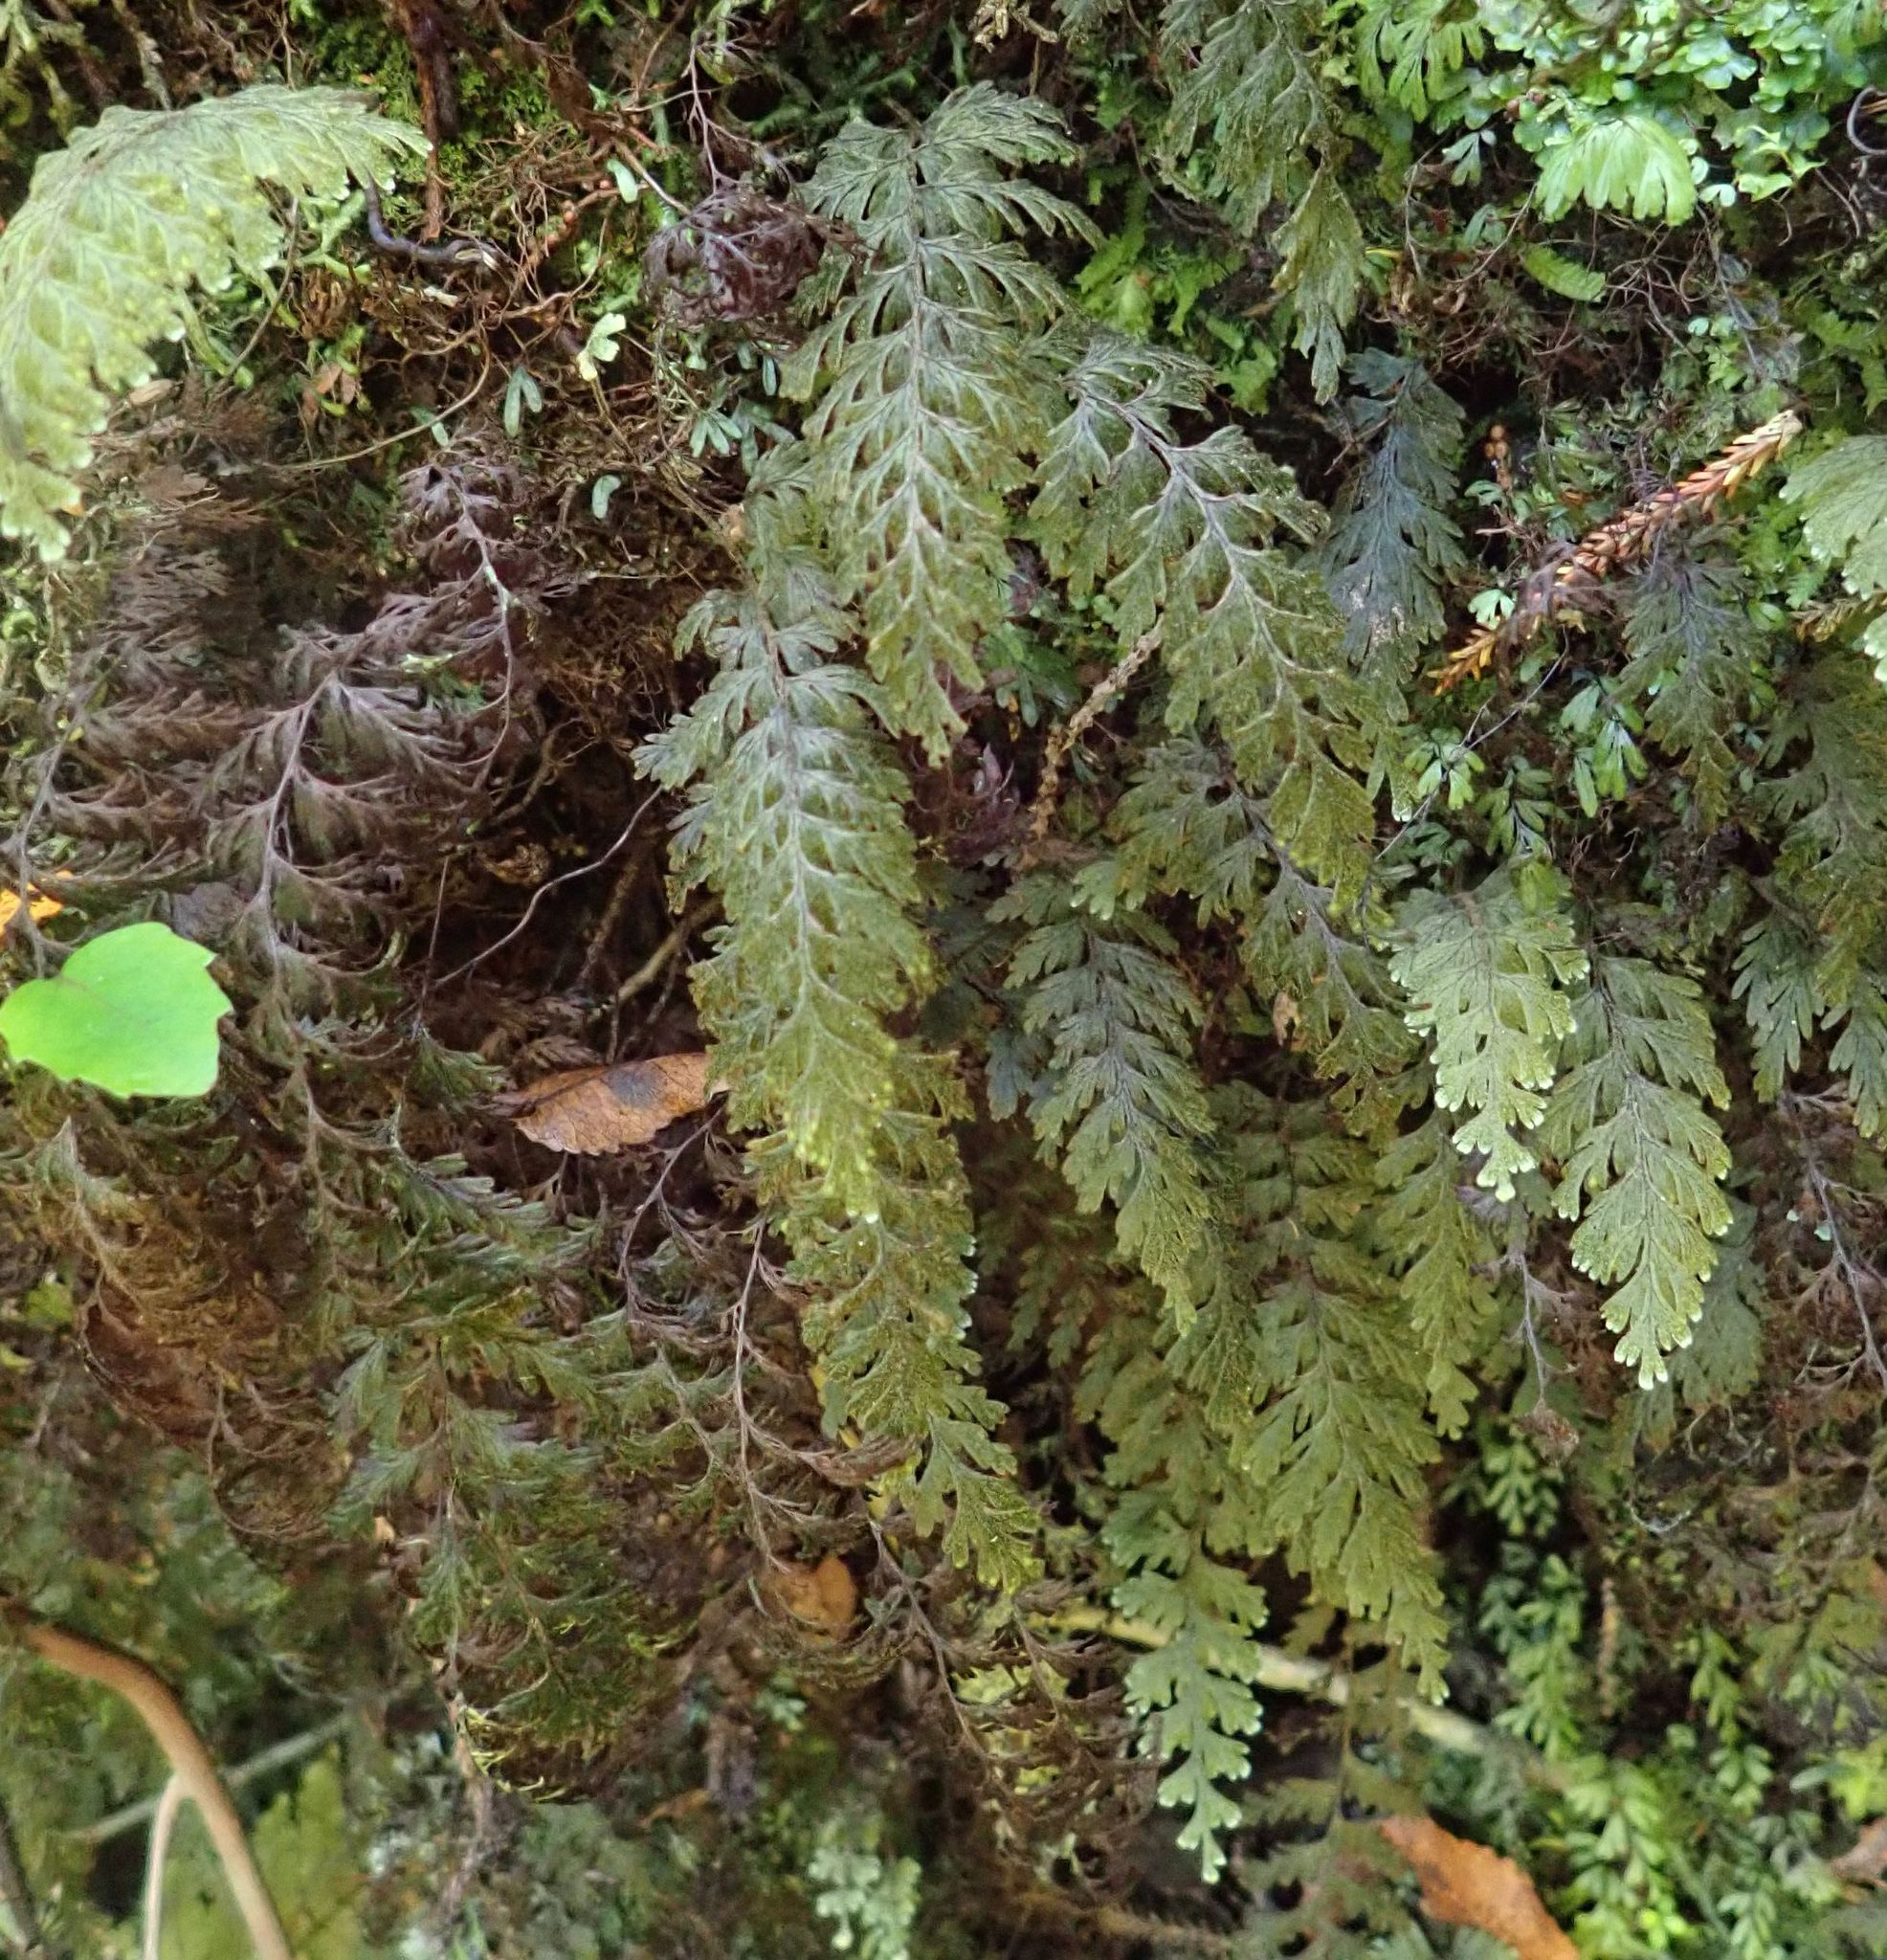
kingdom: Plantae
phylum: Tracheophyta
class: Polypodiopsida
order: Hymenophyllales
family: Hymenophyllaceae
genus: Hymenophyllum
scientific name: Hymenophyllum frankliniae
